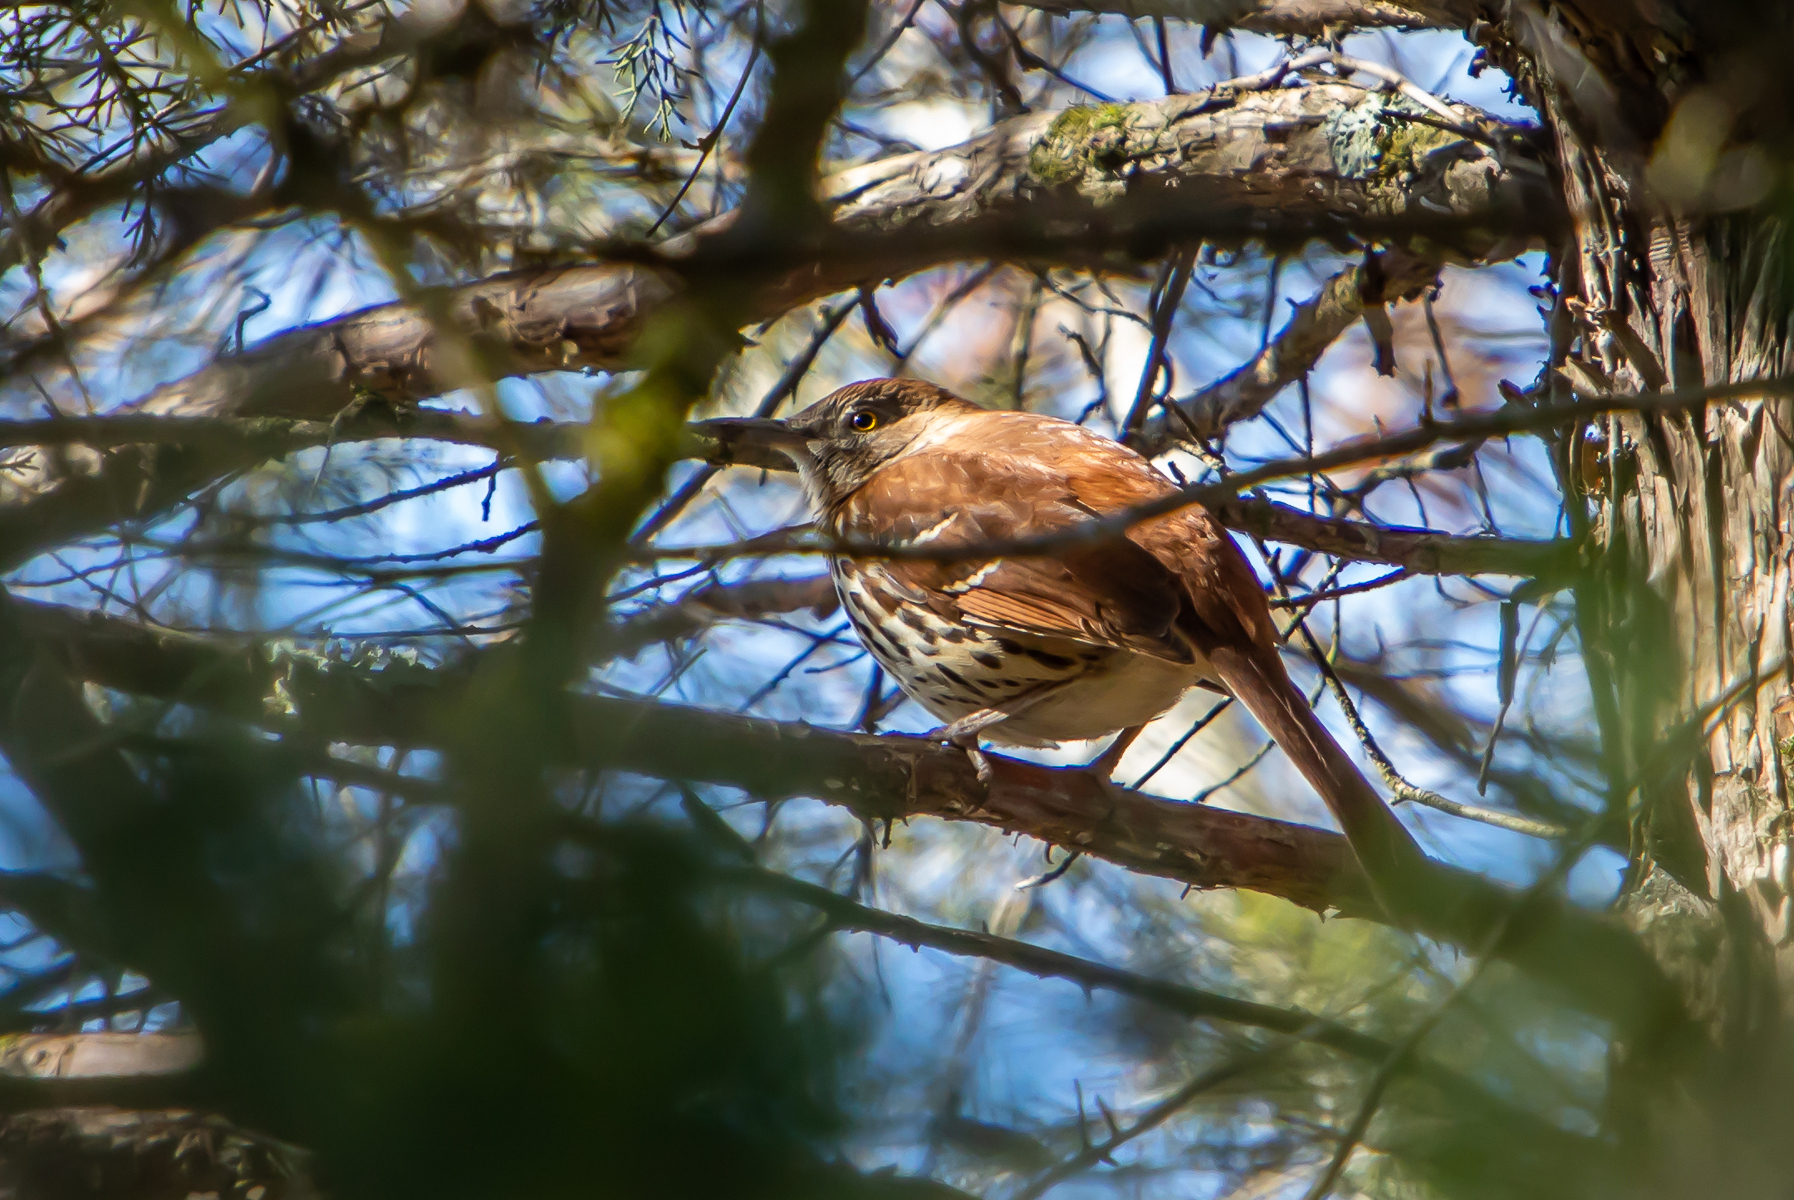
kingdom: Animalia
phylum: Chordata
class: Aves
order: Passeriformes
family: Mimidae
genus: Toxostoma
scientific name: Toxostoma rufum
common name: Brown thrasher
